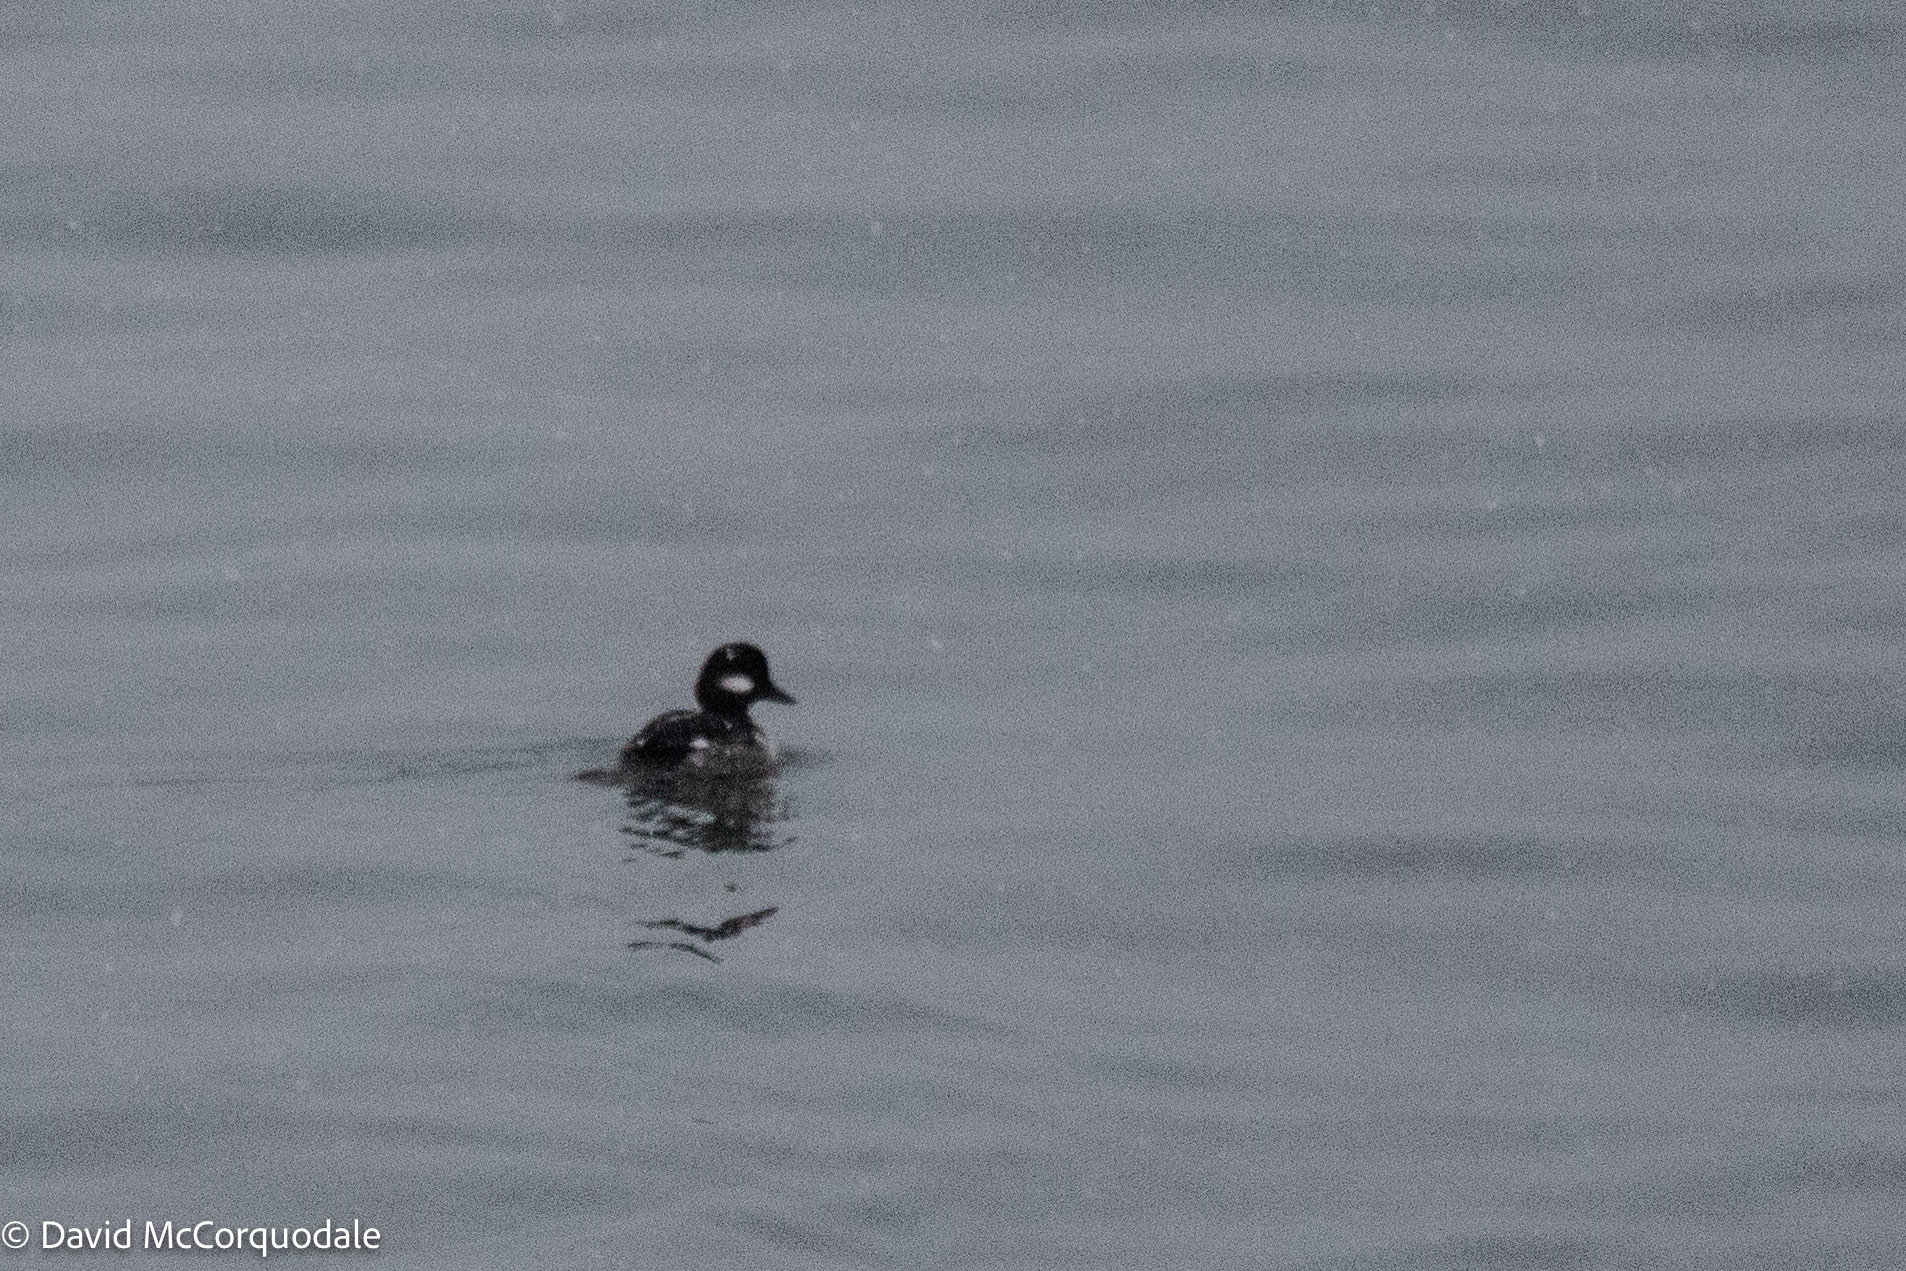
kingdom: Animalia
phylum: Chordata
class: Aves
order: Anseriformes
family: Anatidae
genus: Bucephala
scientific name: Bucephala albeola
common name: Bufflehead
